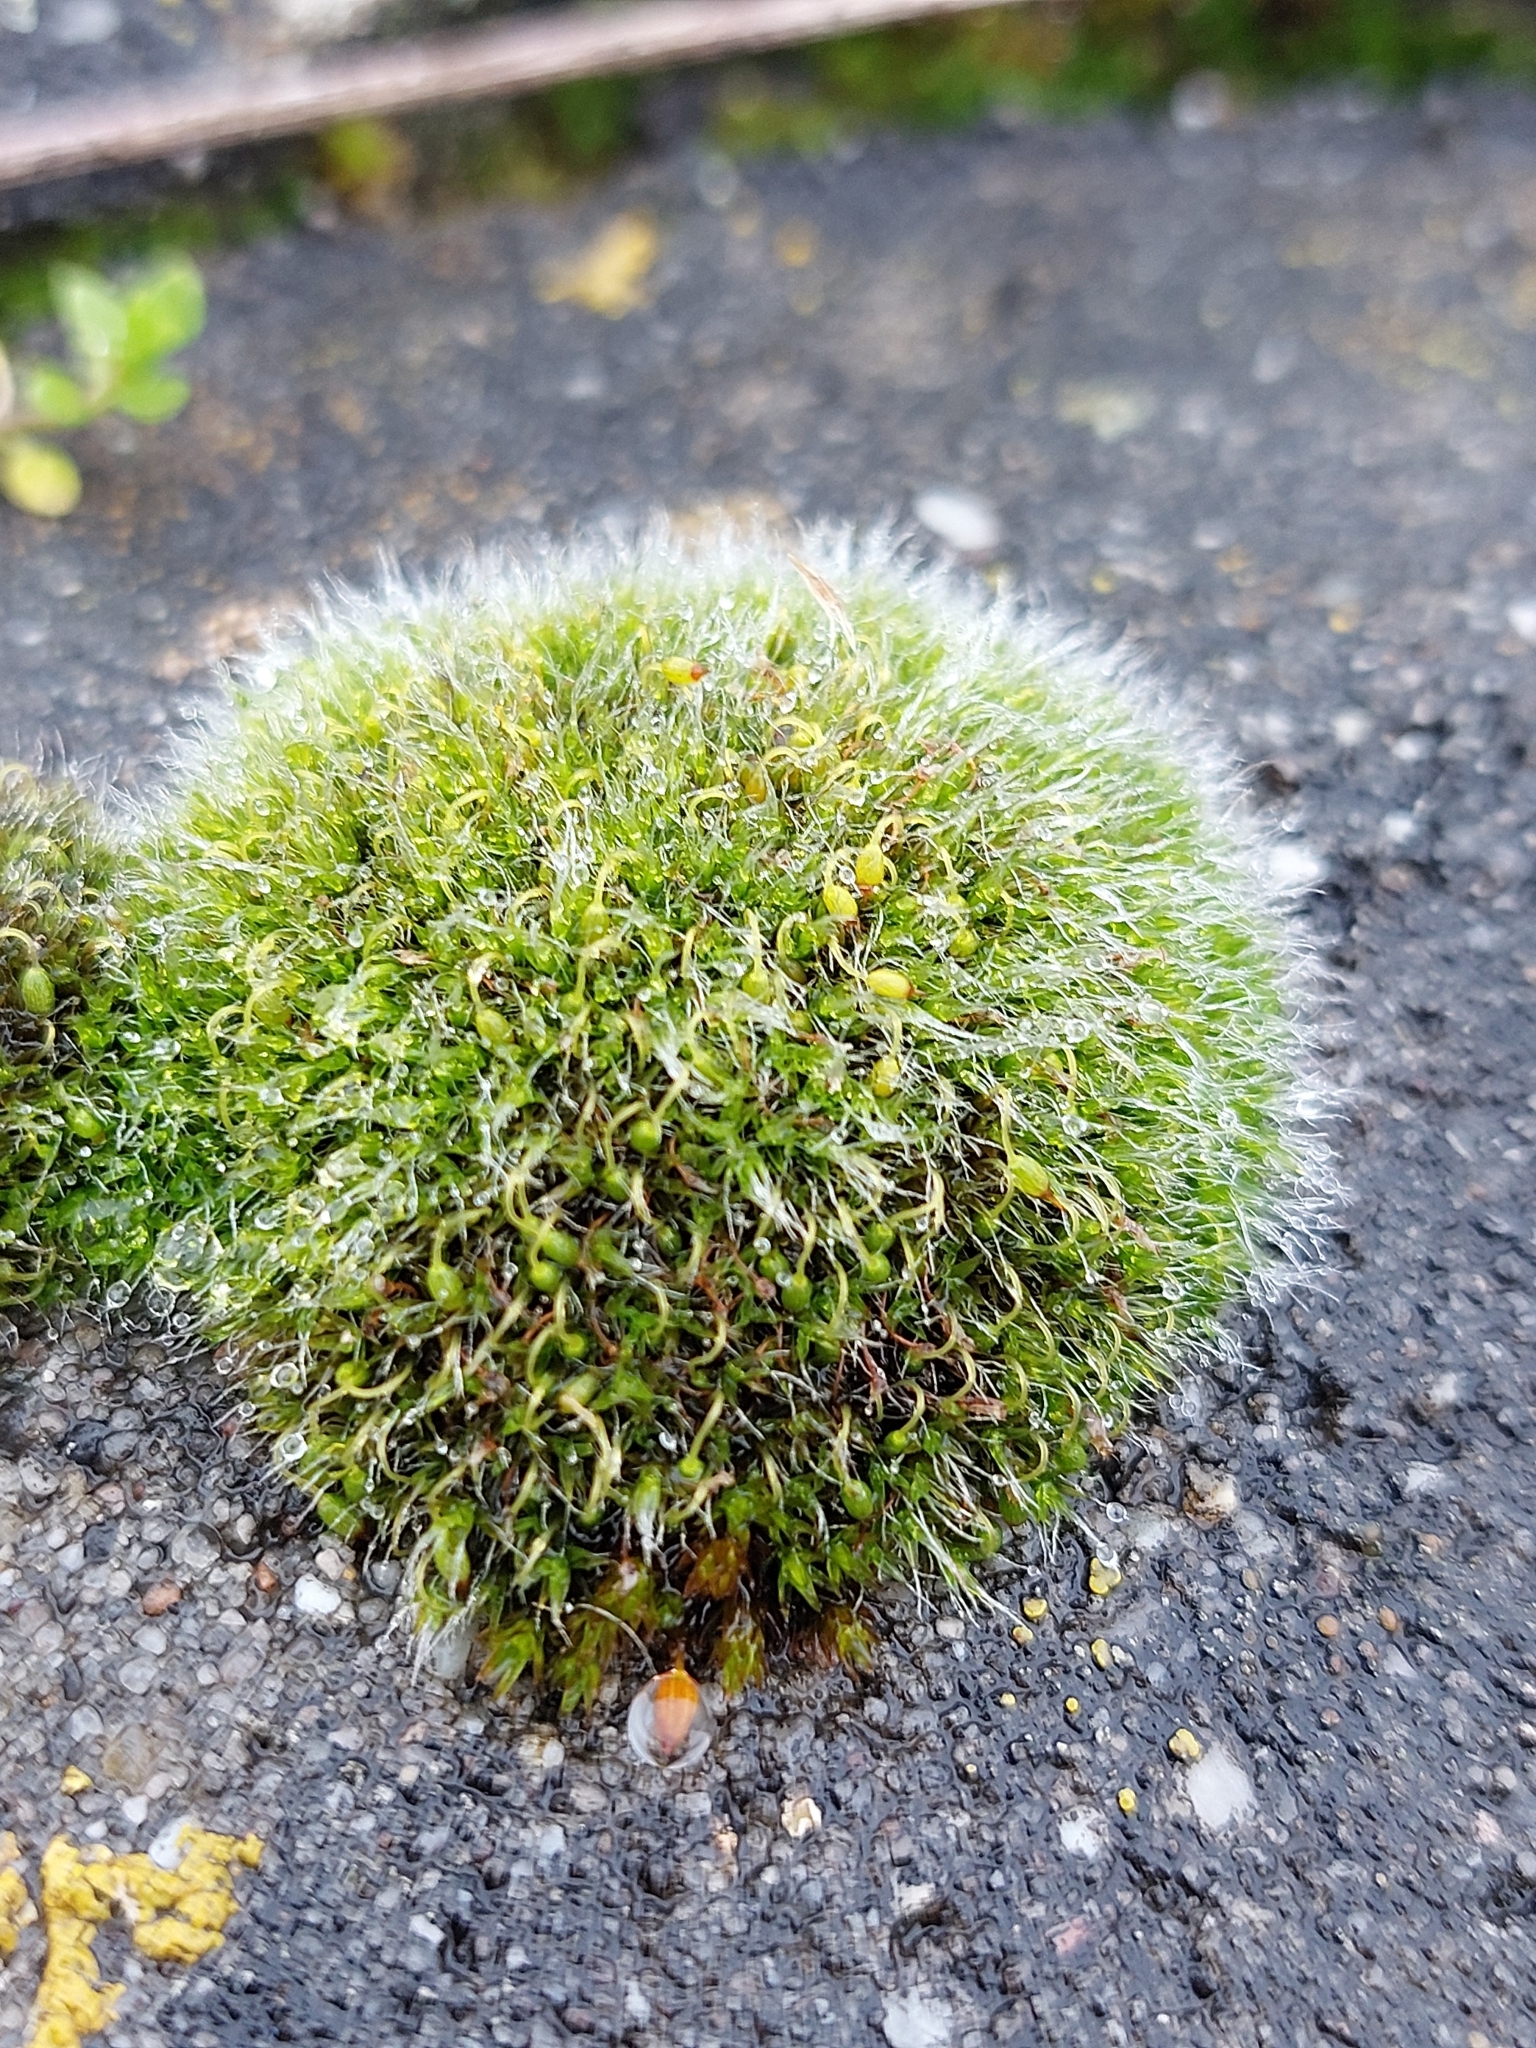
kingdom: Plantae
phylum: Bryophyta
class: Bryopsida
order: Grimmiales
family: Grimmiaceae
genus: Grimmia
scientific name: Grimmia pulvinata
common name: Grey-cushioned grimmia
